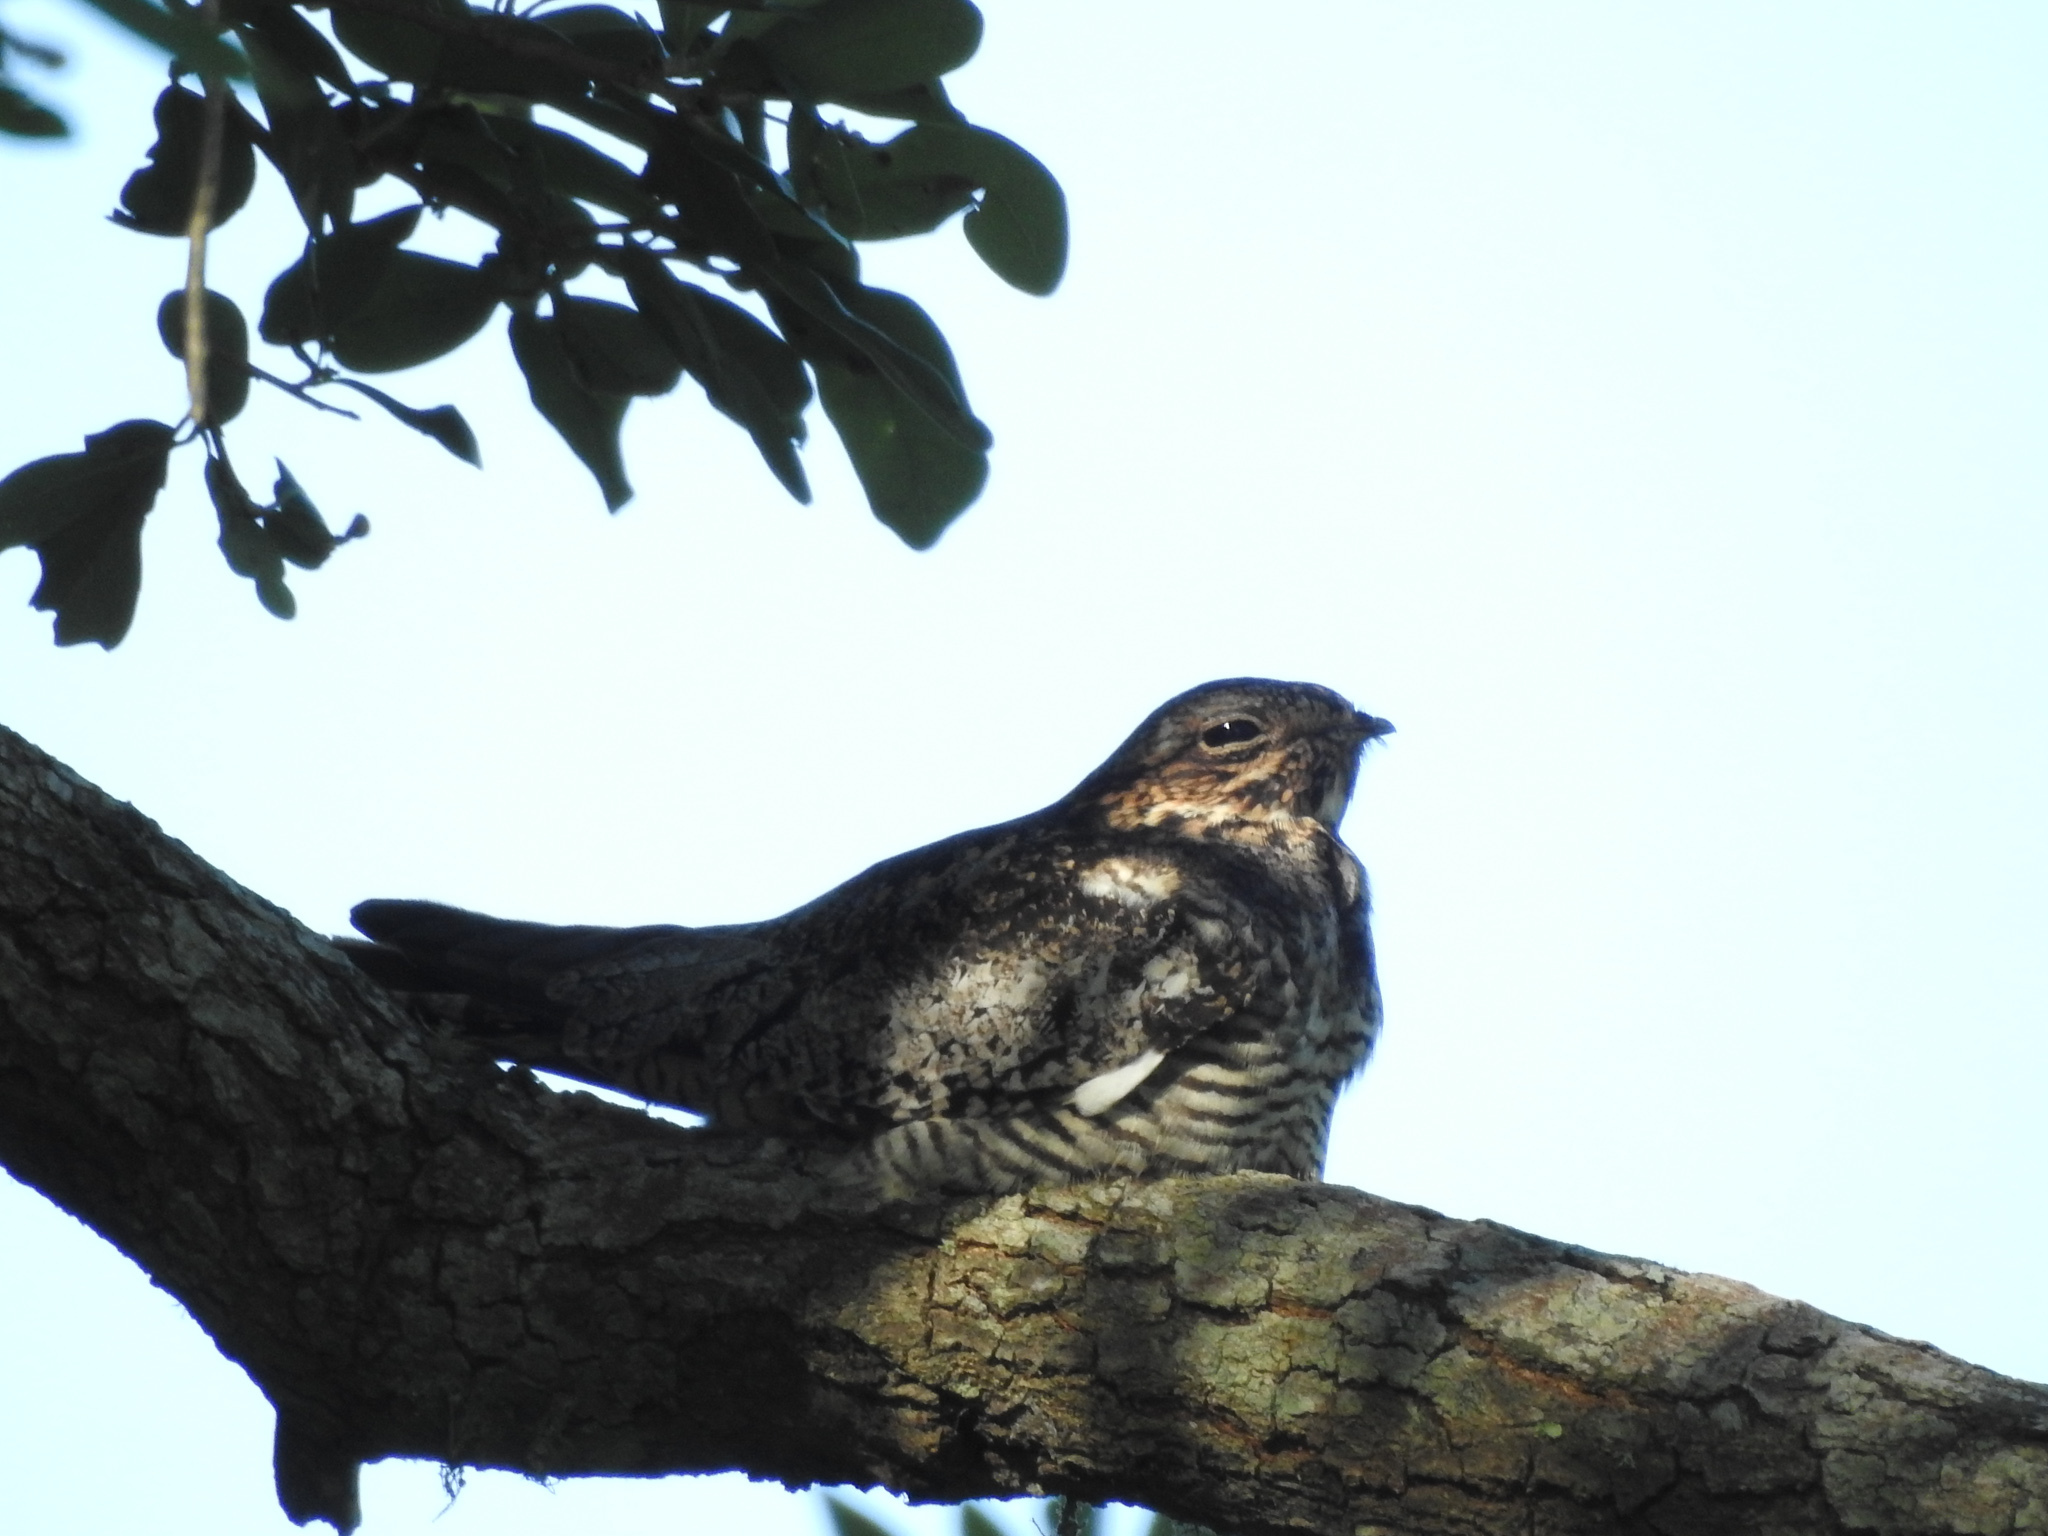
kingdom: Animalia
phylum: Chordata
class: Aves
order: Caprimulgiformes
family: Caprimulgidae
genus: Chordeiles
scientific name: Chordeiles minor
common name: Common nighthawk
